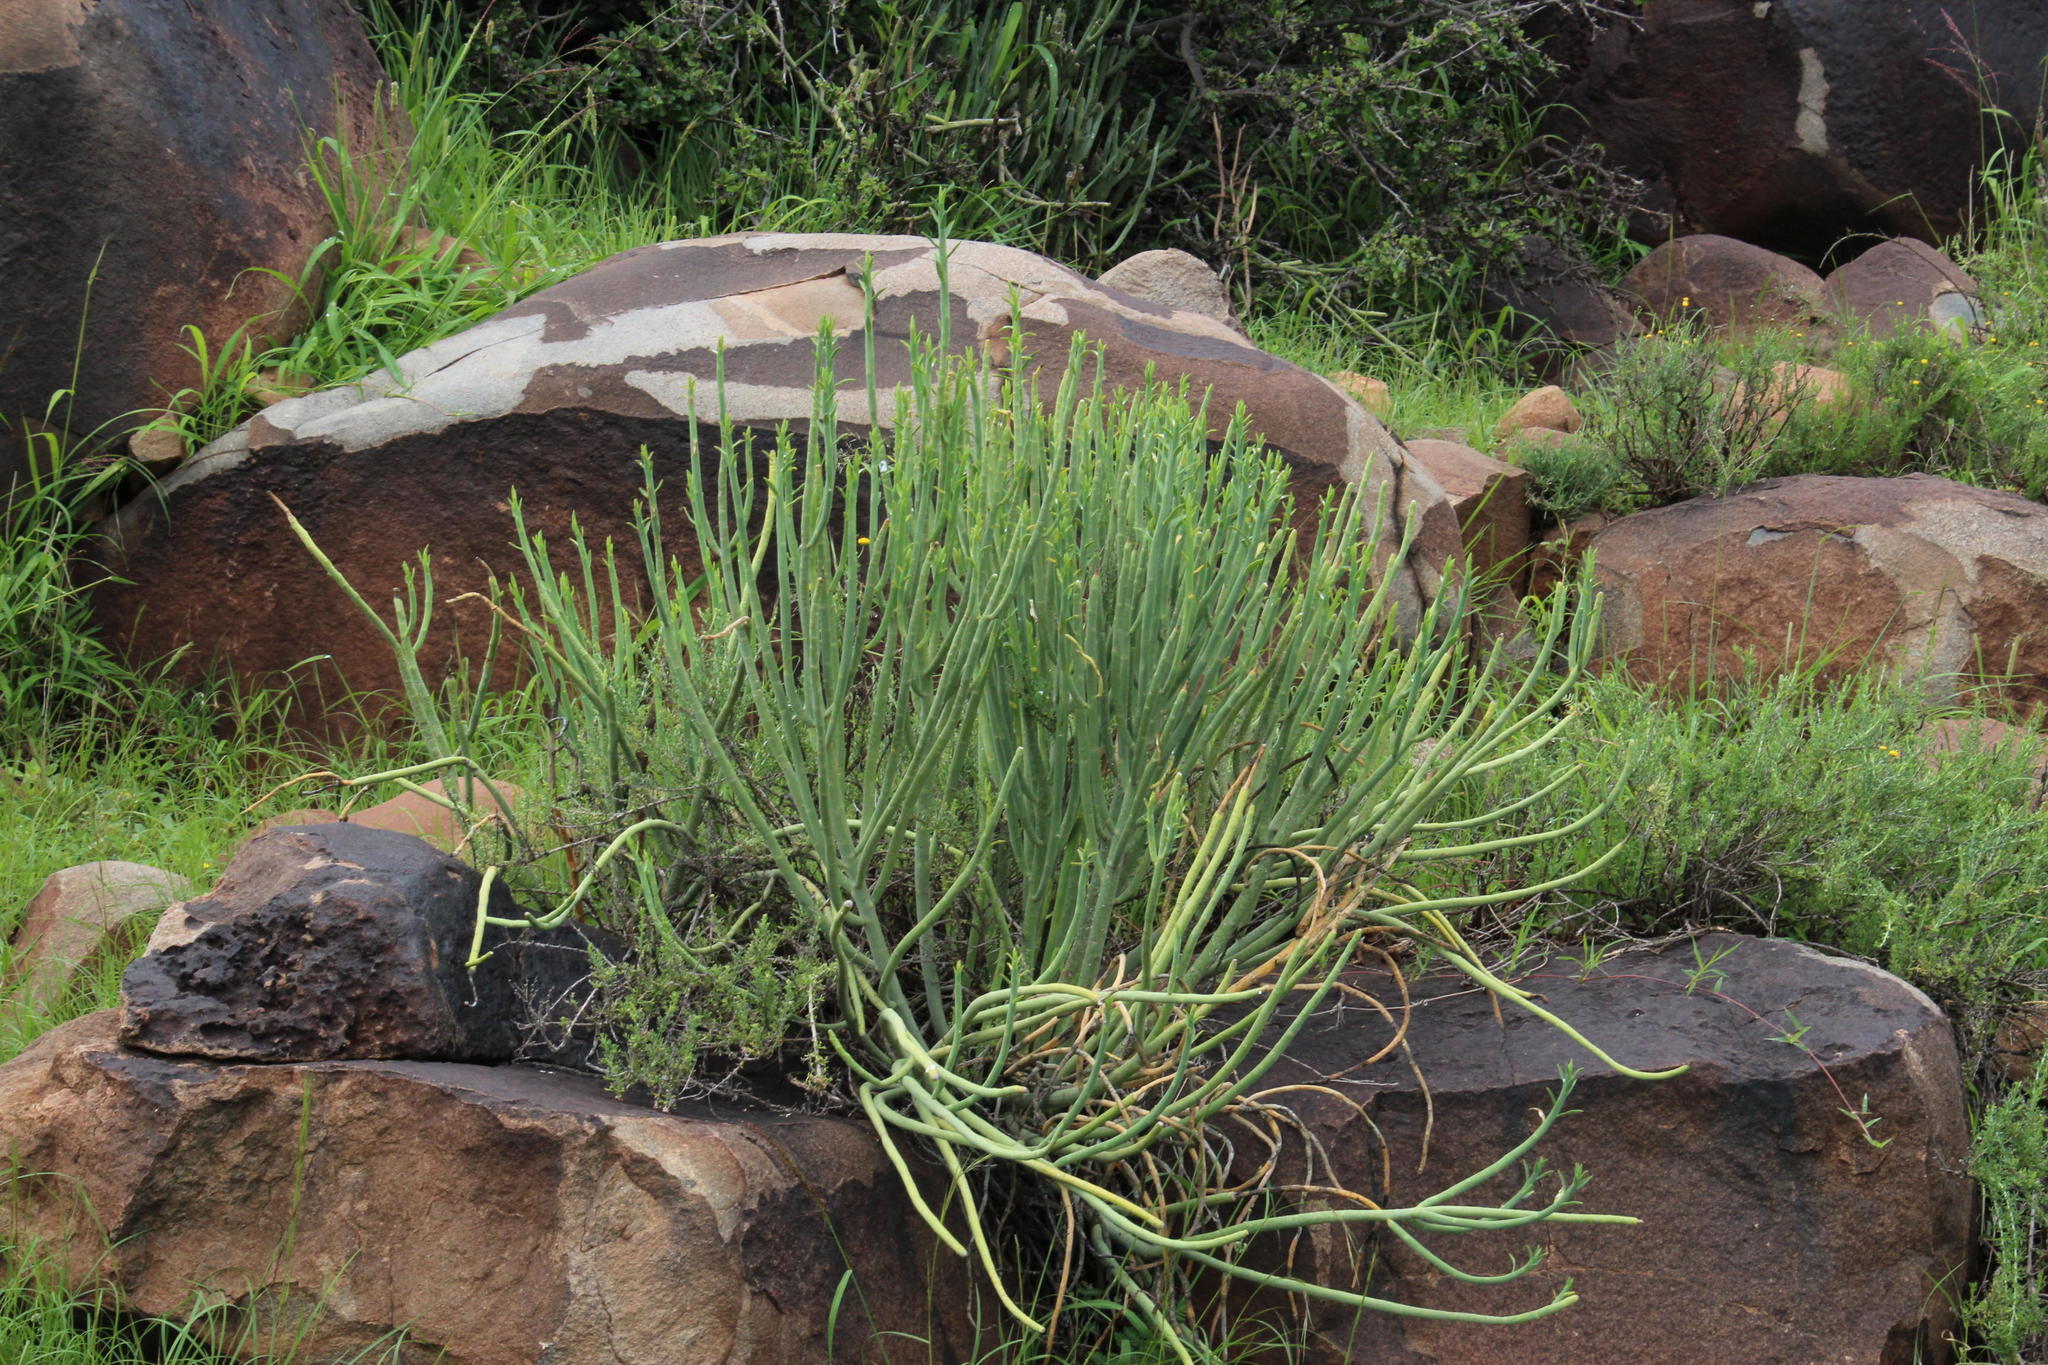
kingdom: Plantae
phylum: Tracheophyta
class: Magnoliopsida
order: Malpighiales
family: Euphorbiaceae
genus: Euphorbia
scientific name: Euphorbia mauritanica
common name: Jackal's-food
